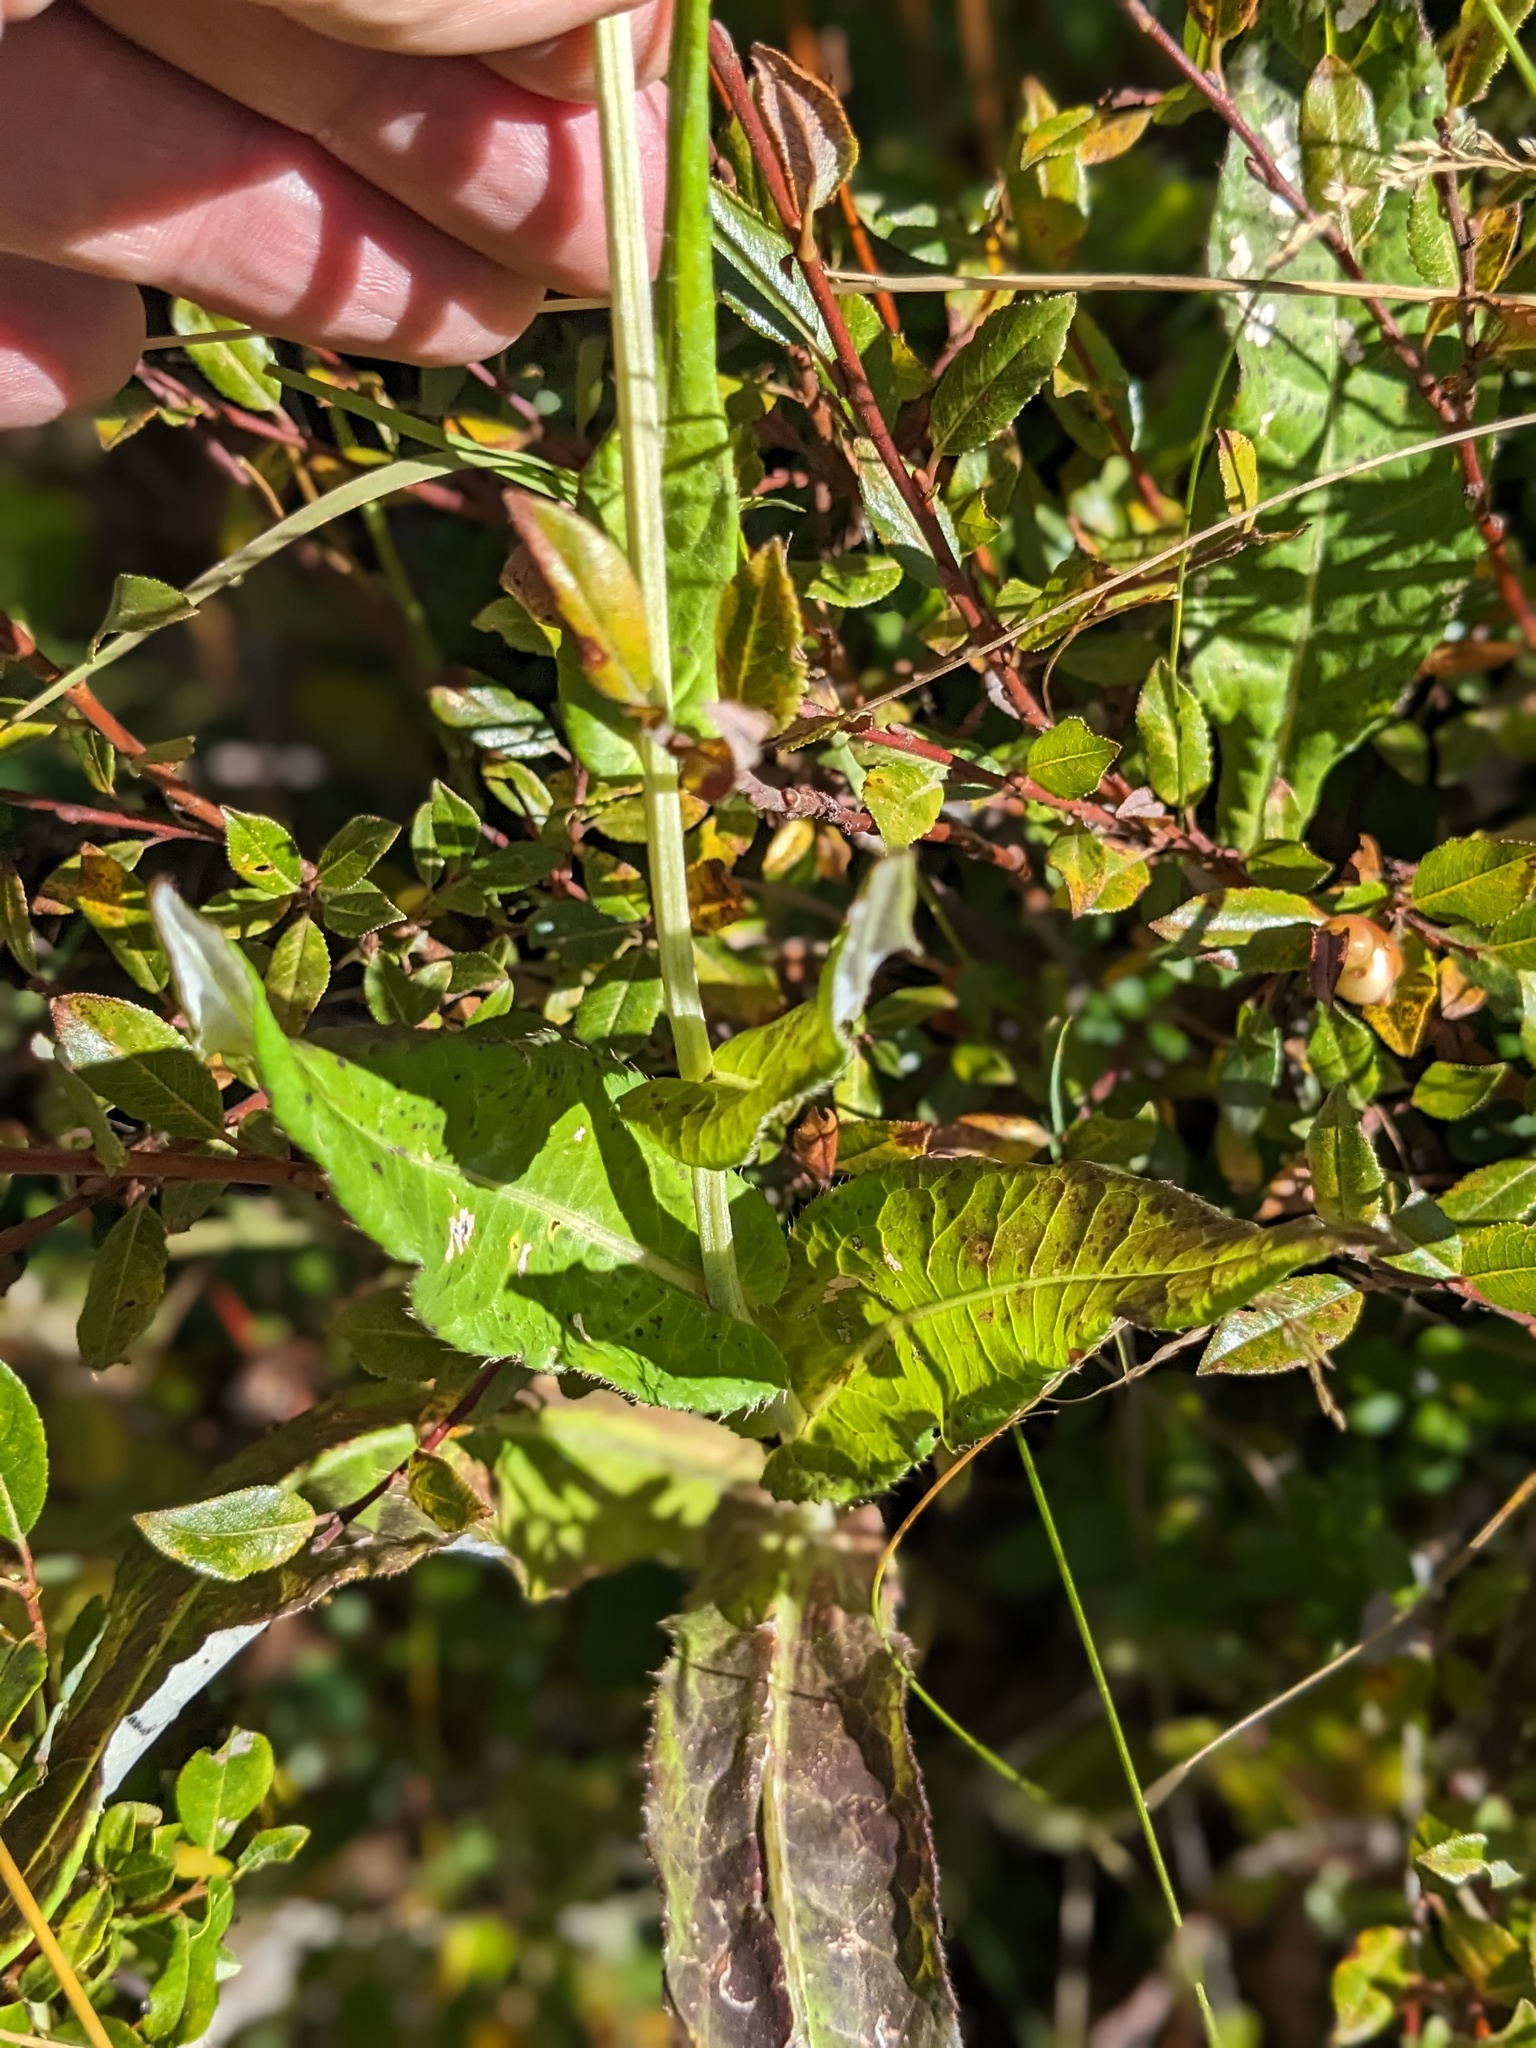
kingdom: Plantae
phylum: Tracheophyta
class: Magnoliopsida
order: Asterales
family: Asteraceae
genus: Carduus
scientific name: Carduus defloratus
